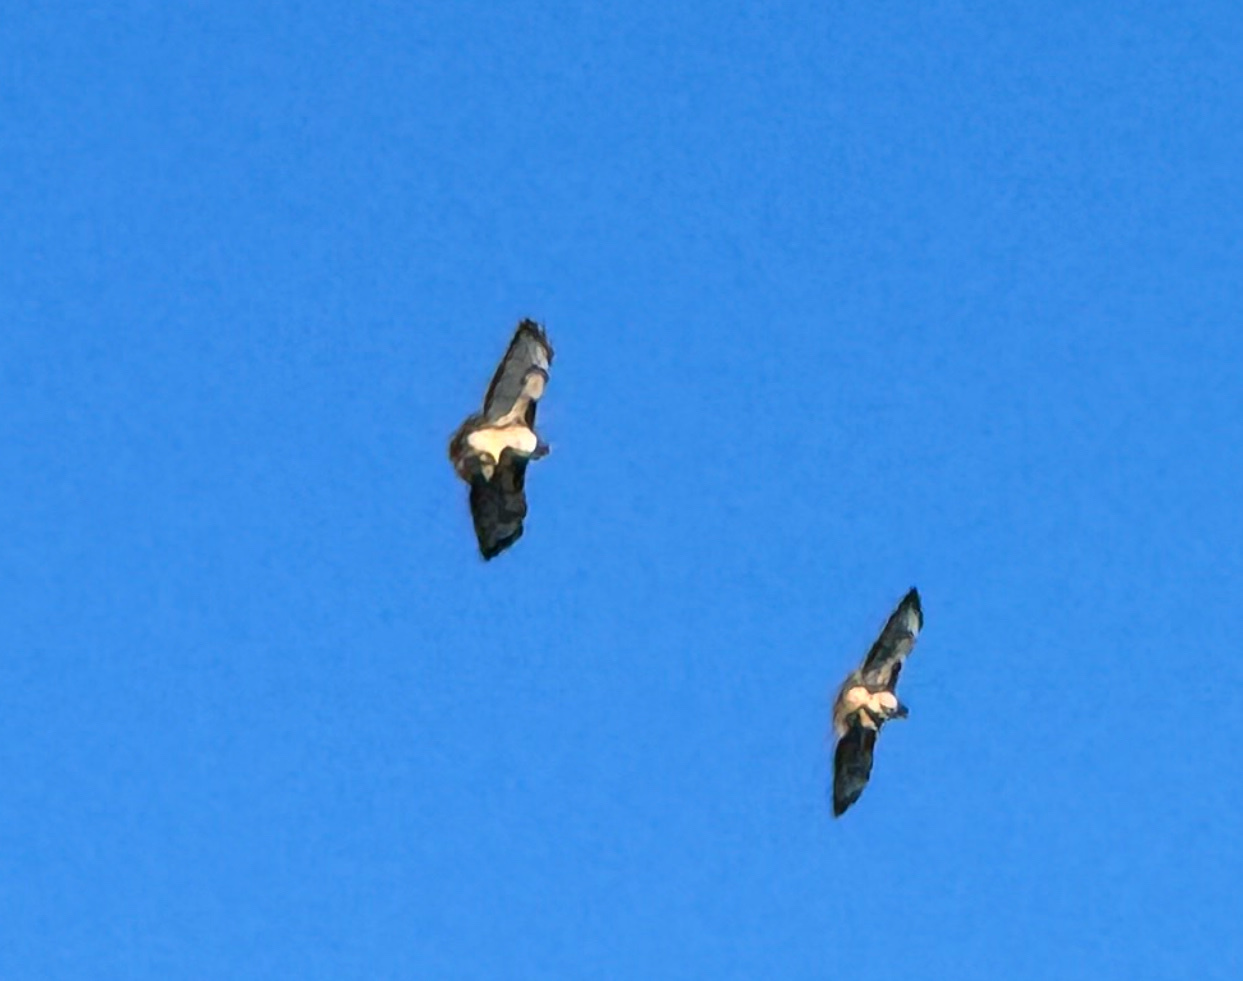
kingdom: Animalia
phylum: Chordata
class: Aves
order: Accipitriformes
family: Accipitridae
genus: Buteo
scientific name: Buteo jamaicensis
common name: Red-tailed hawk
